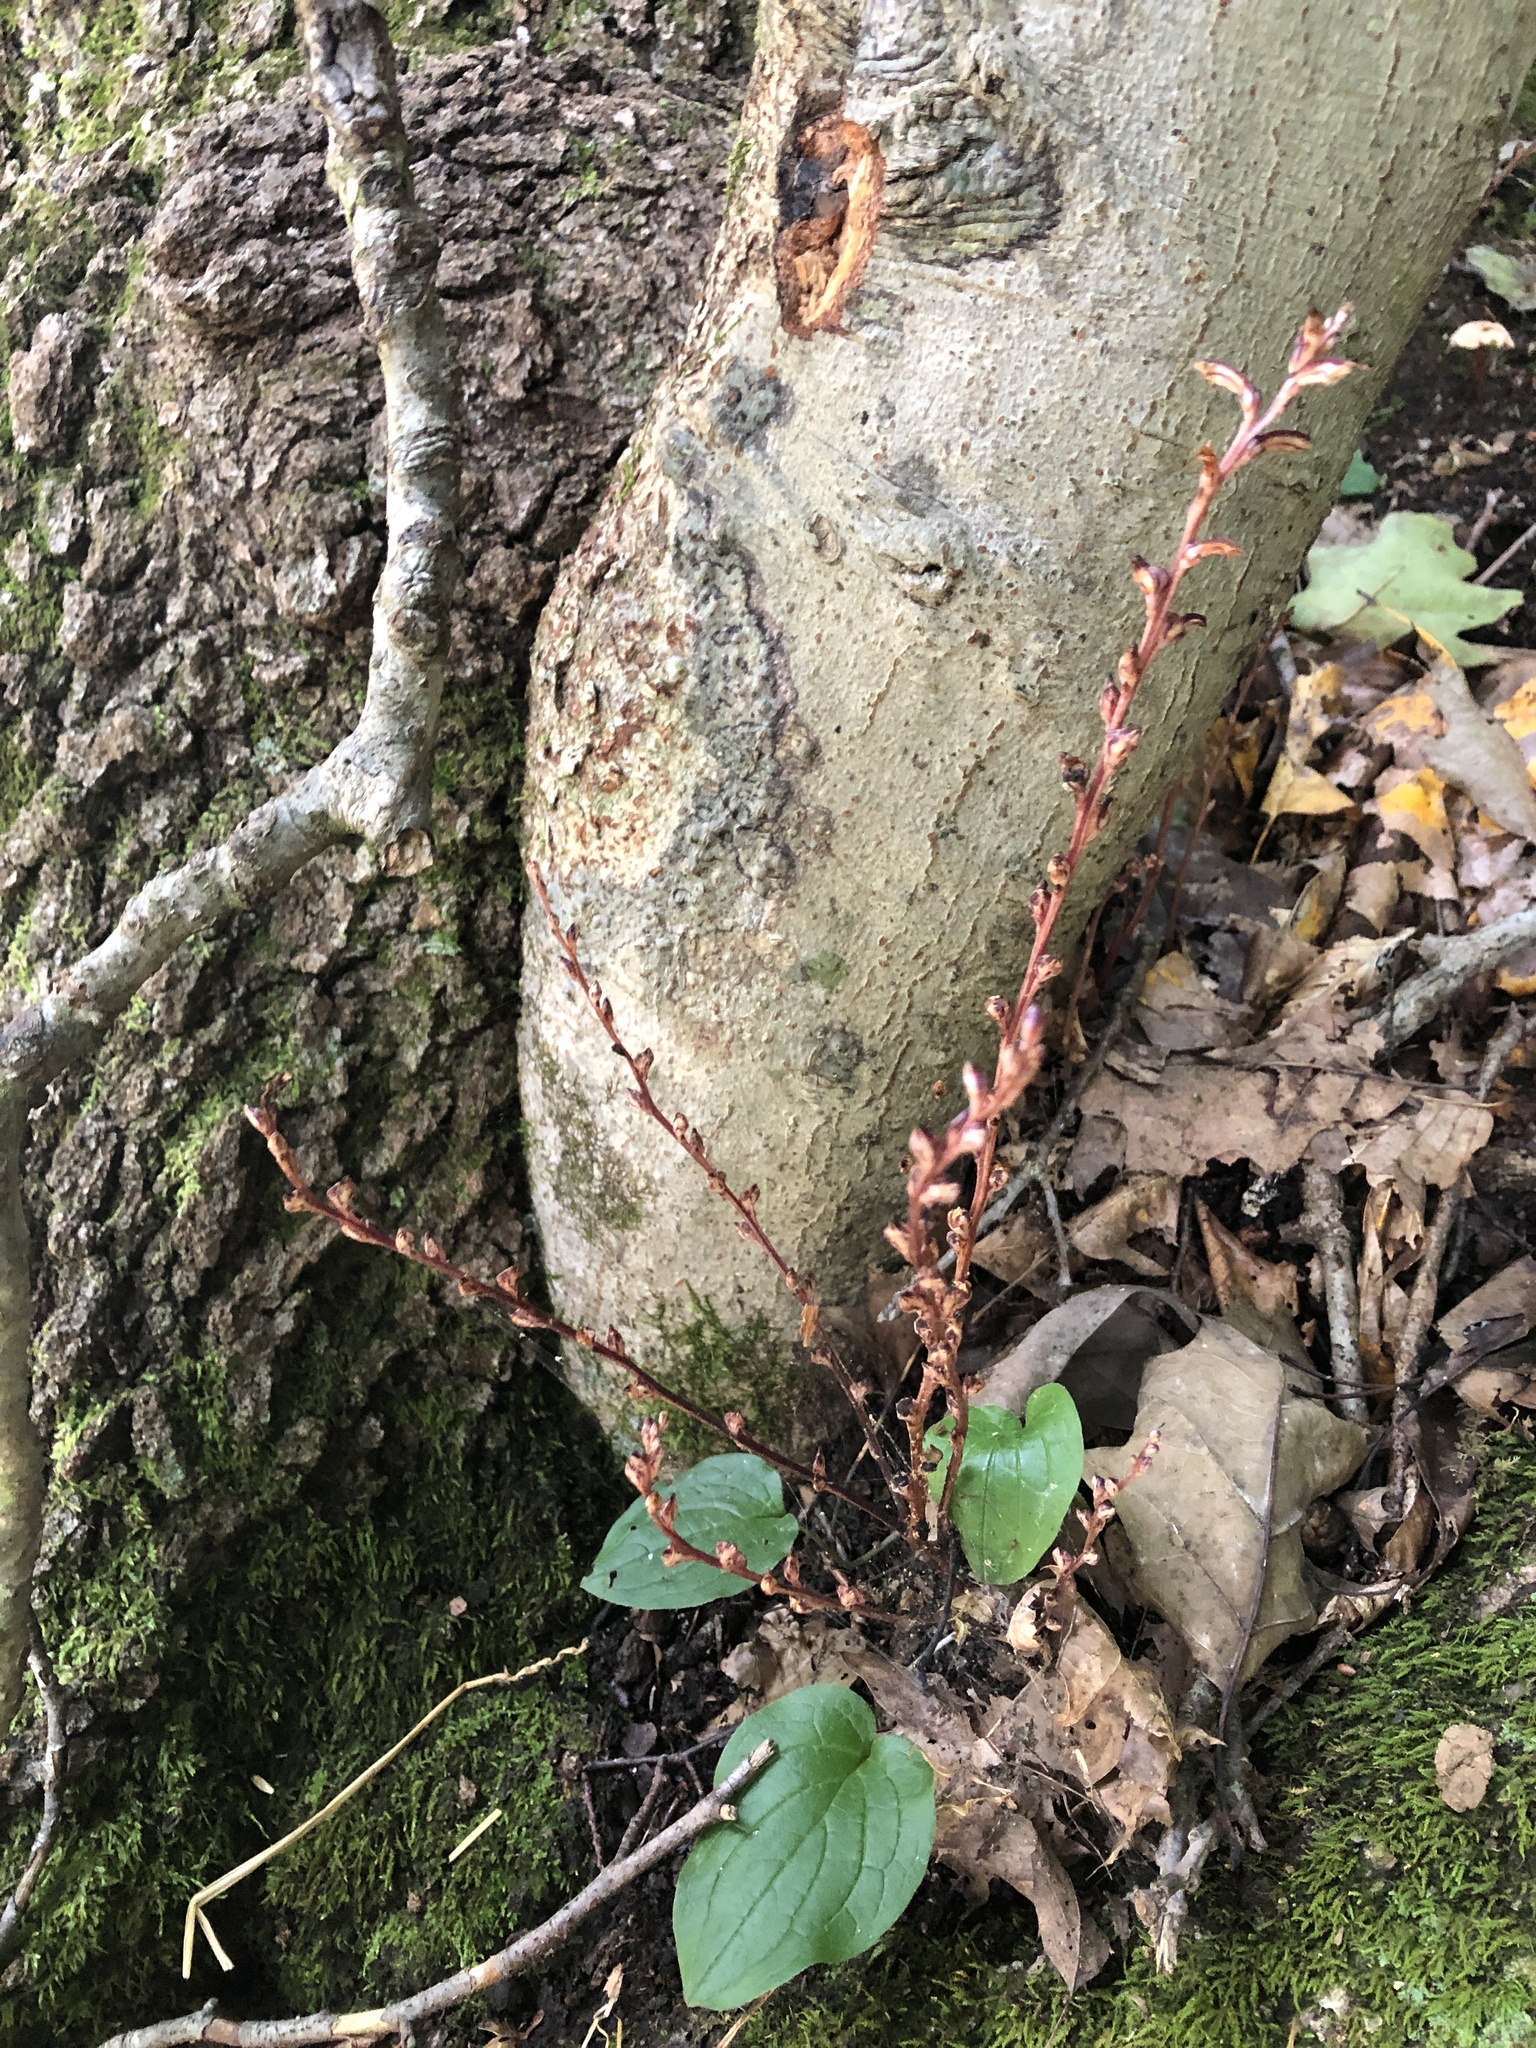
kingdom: Plantae
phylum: Tracheophyta
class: Magnoliopsida
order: Lamiales
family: Orobanchaceae
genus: Epifagus
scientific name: Epifagus virginiana
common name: Beechdrops
